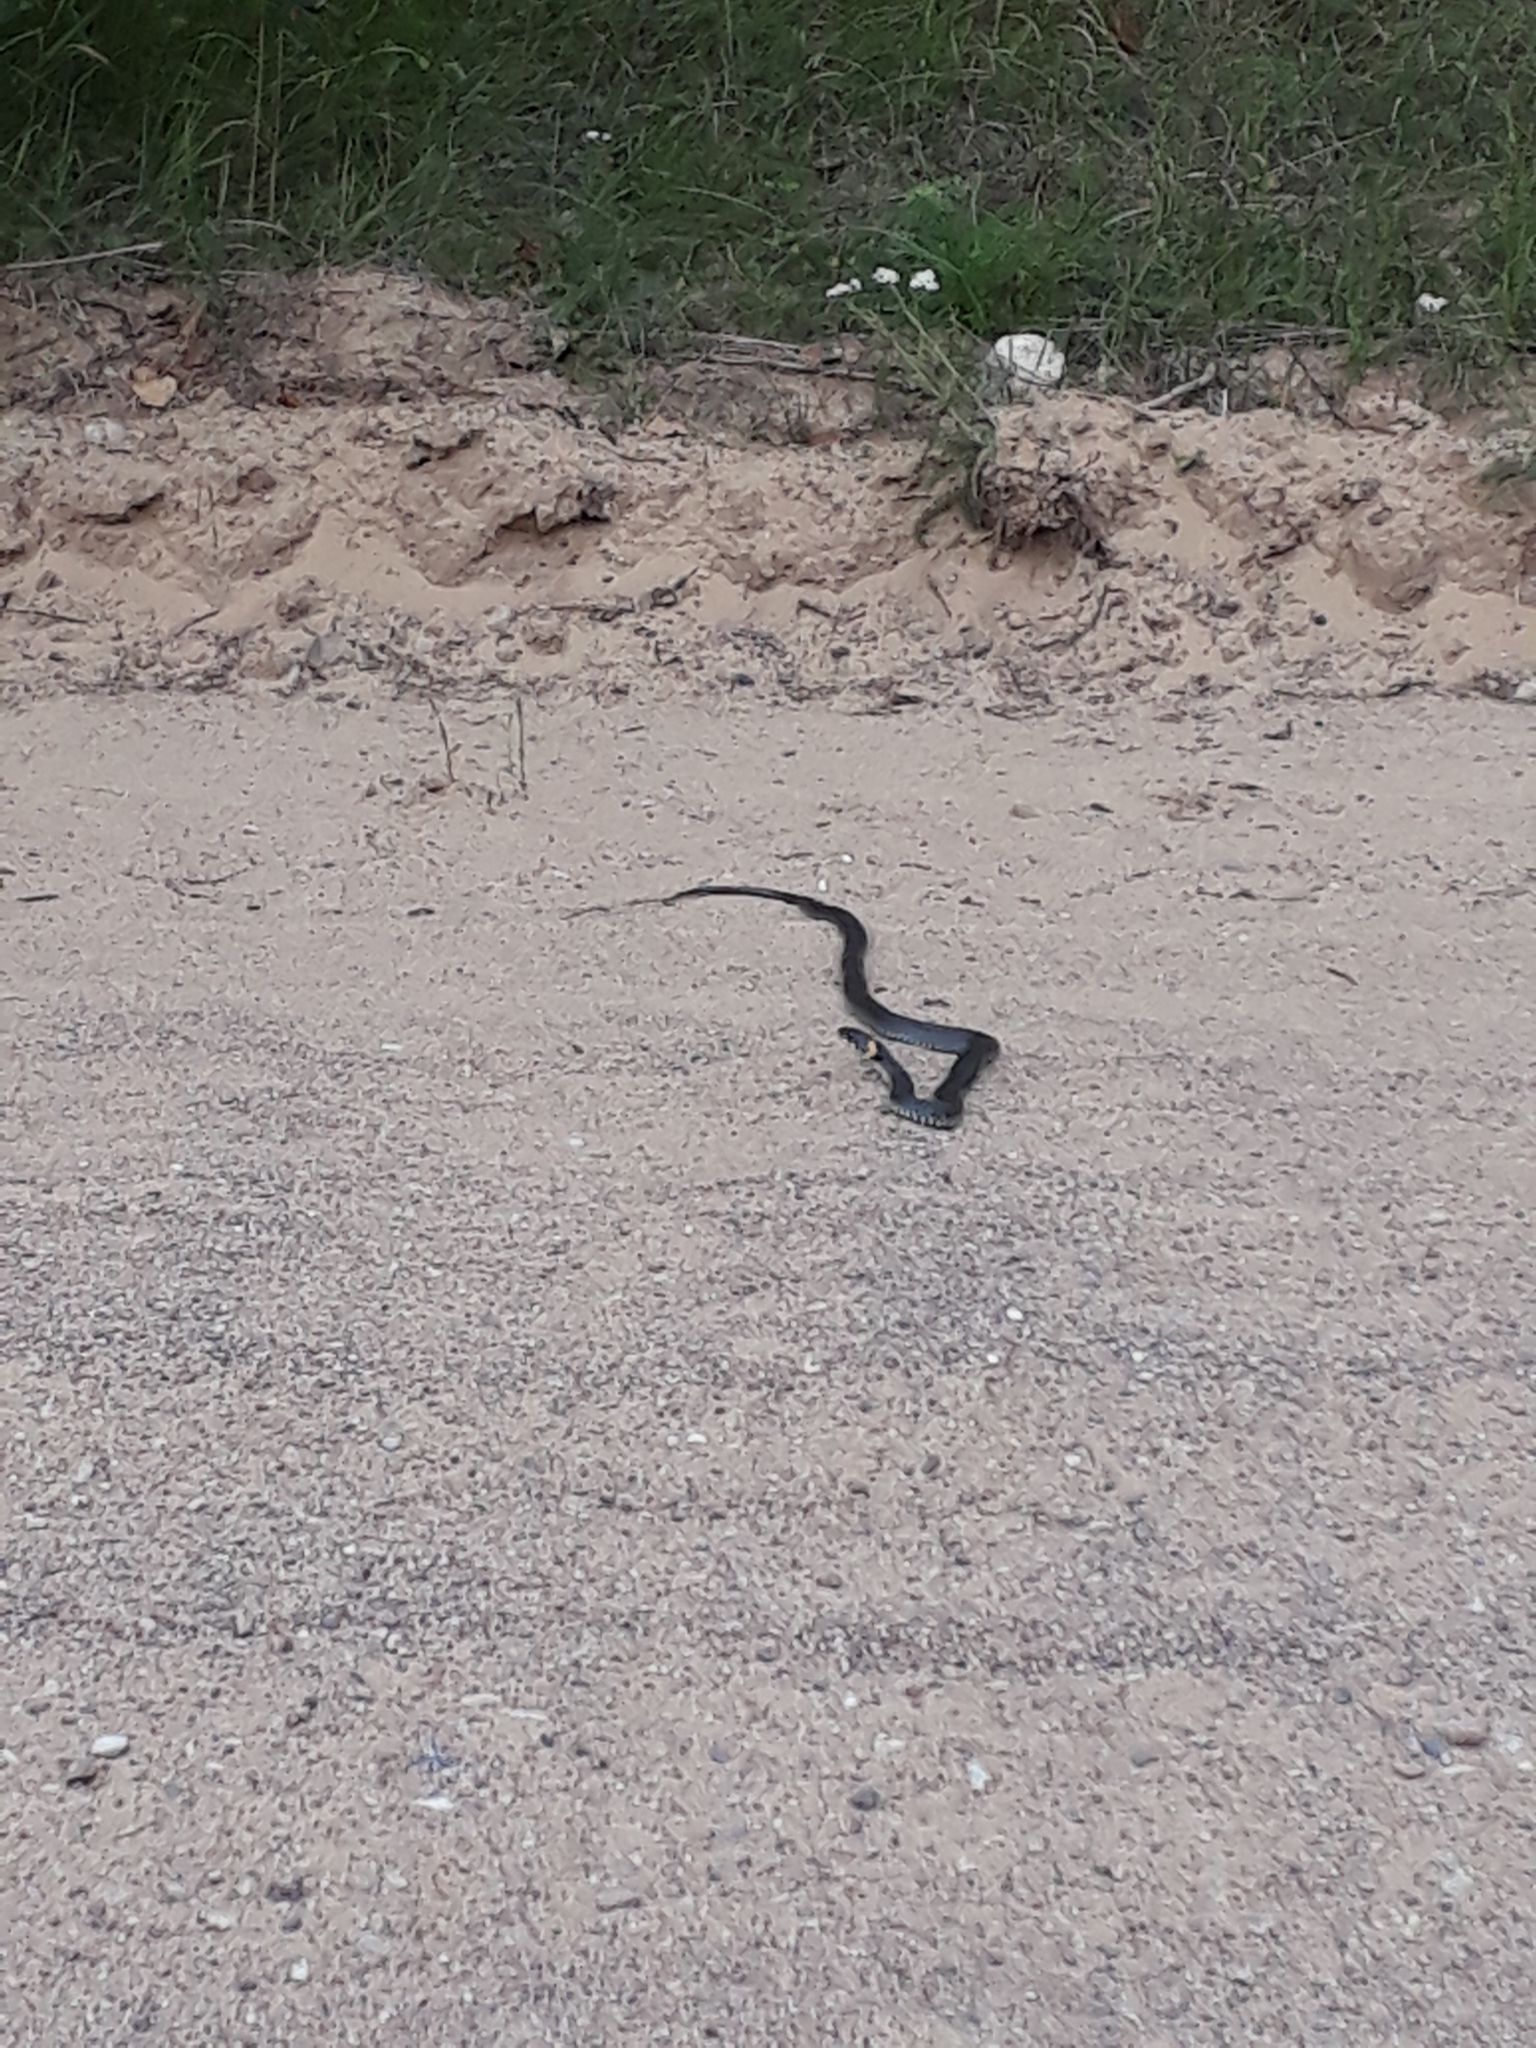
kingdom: Animalia
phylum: Chordata
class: Squamata
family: Colubridae
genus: Natrix
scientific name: Natrix natrix
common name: Grass snake
